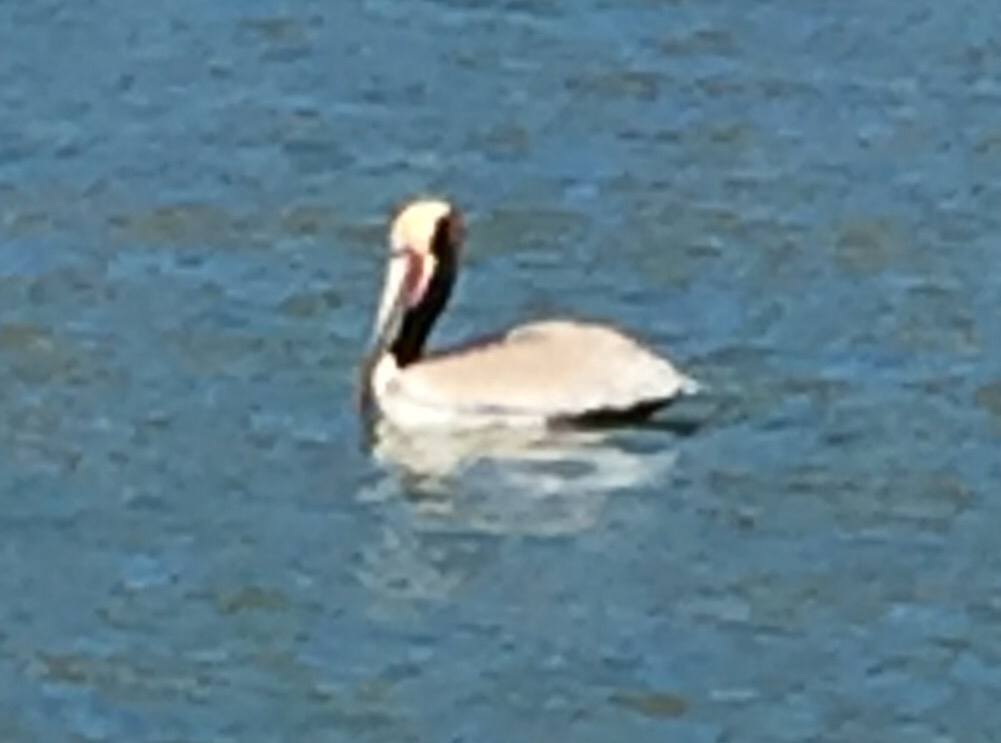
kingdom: Animalia
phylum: Chordata
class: Aves
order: Pelecaniformes
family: Pelecanidae
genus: Pelecanus
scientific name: Pelecanus occidentalis
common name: Brown pelican
